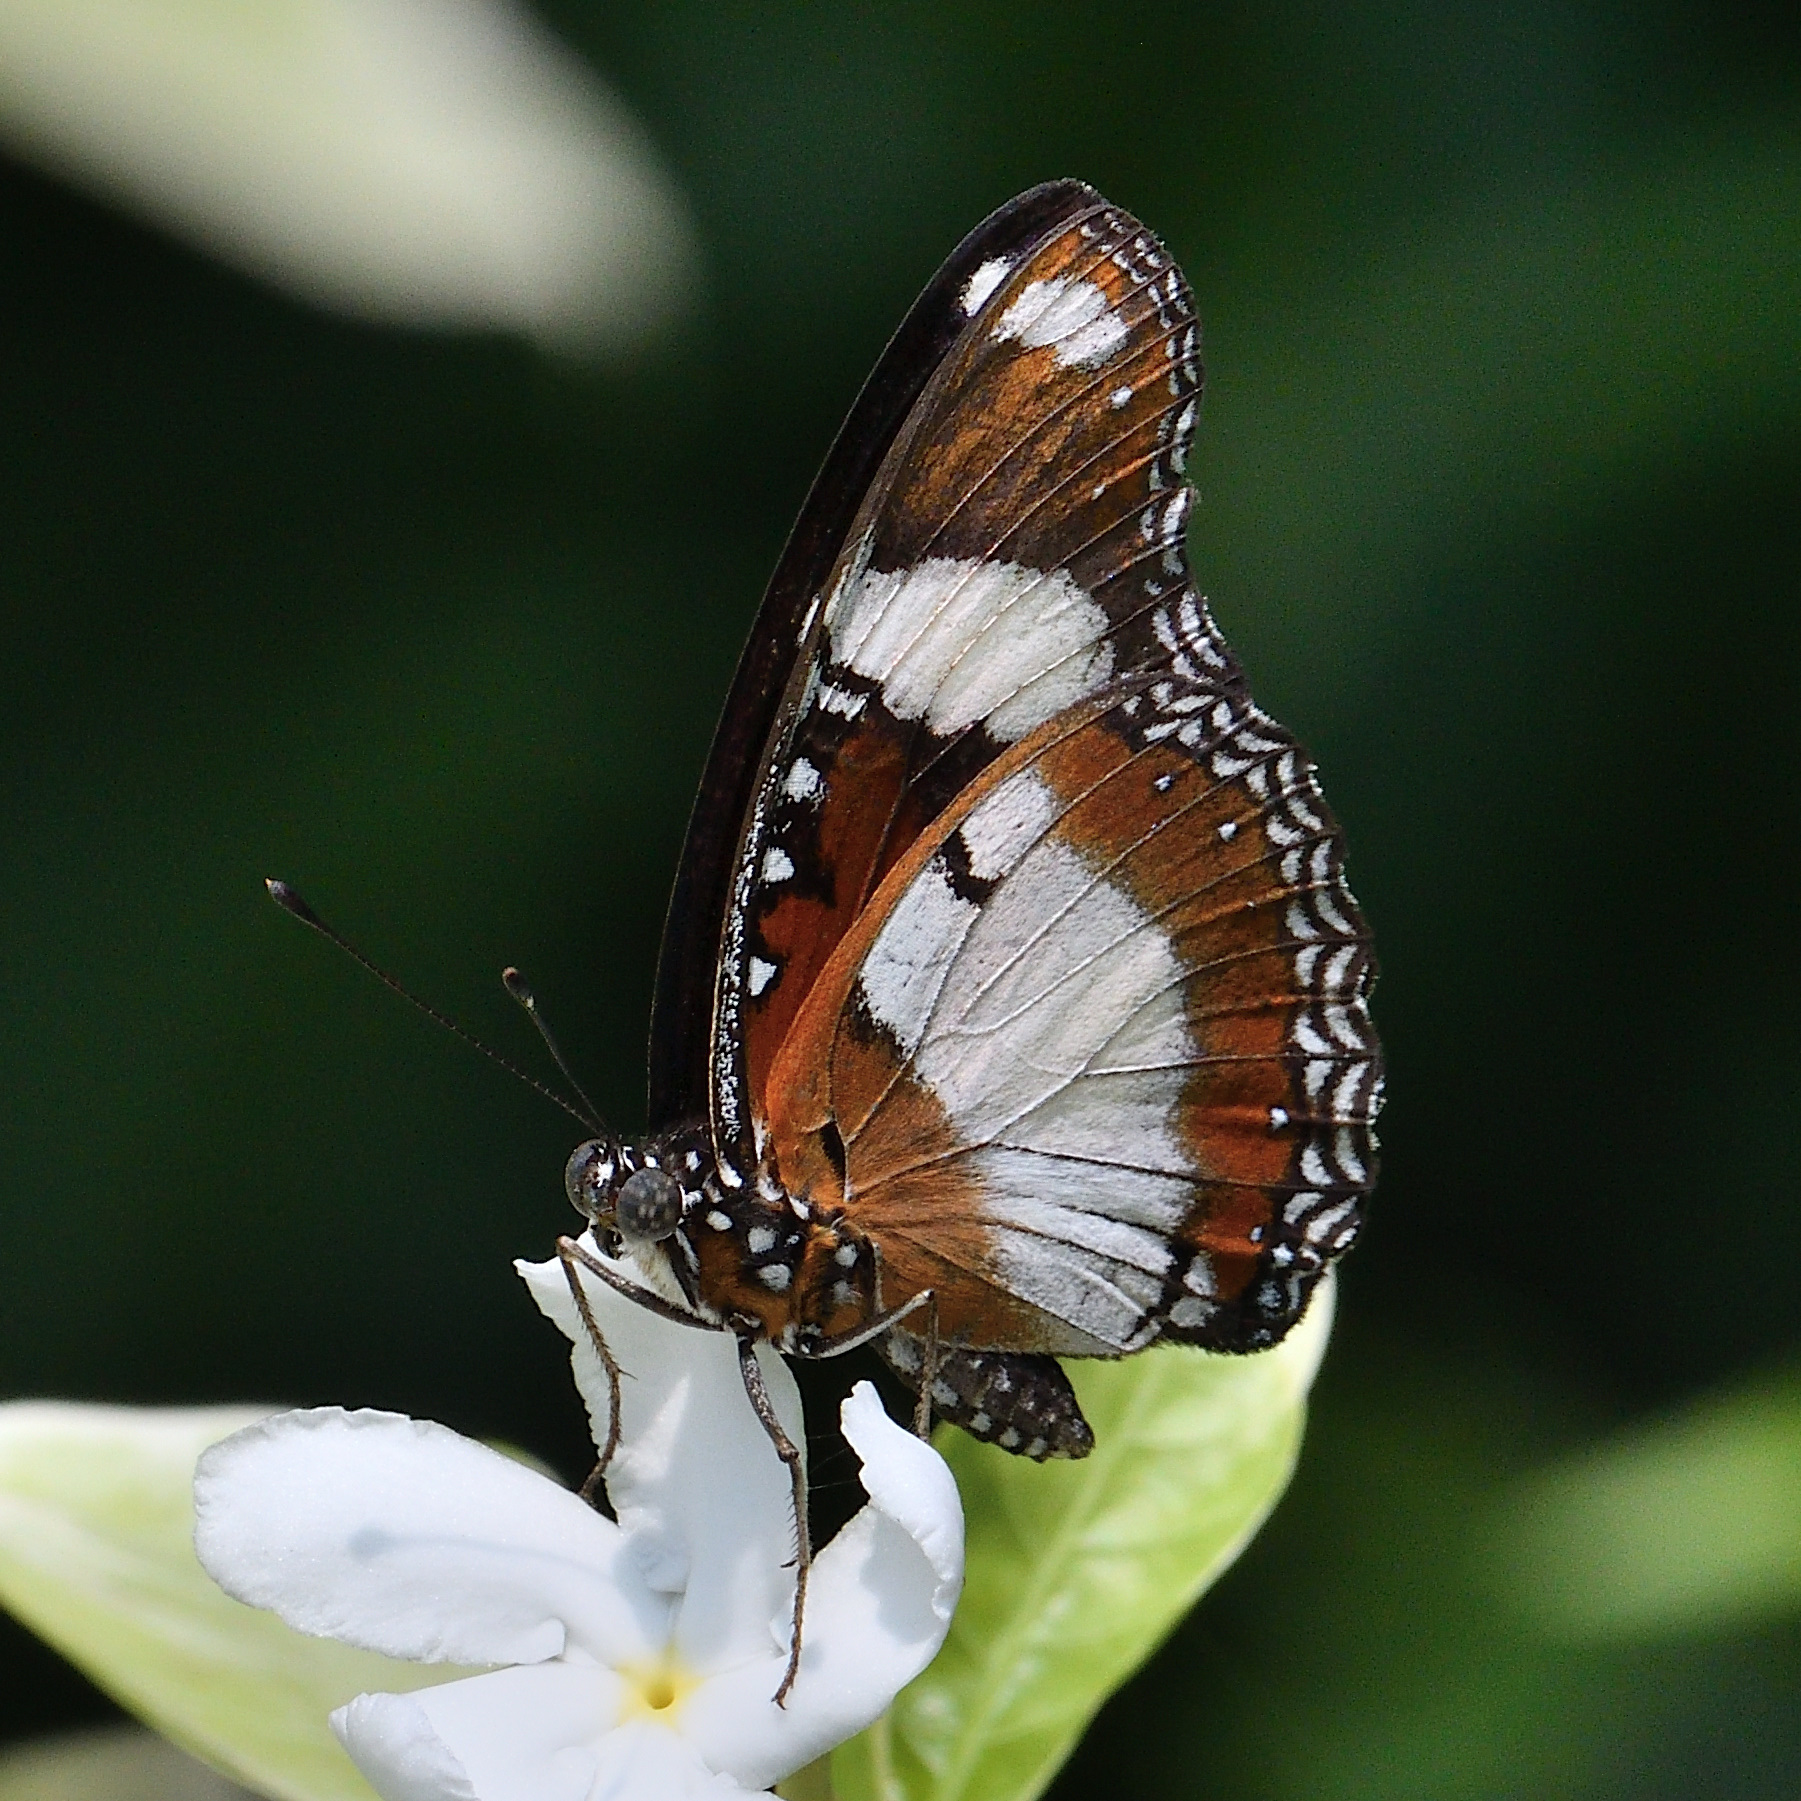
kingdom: Animalia
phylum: Arthropoda
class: Insecta
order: Lepidoptera
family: Nymphalidae
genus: Hypolimnas
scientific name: Hypolimnas misippus
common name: False plain tiger
